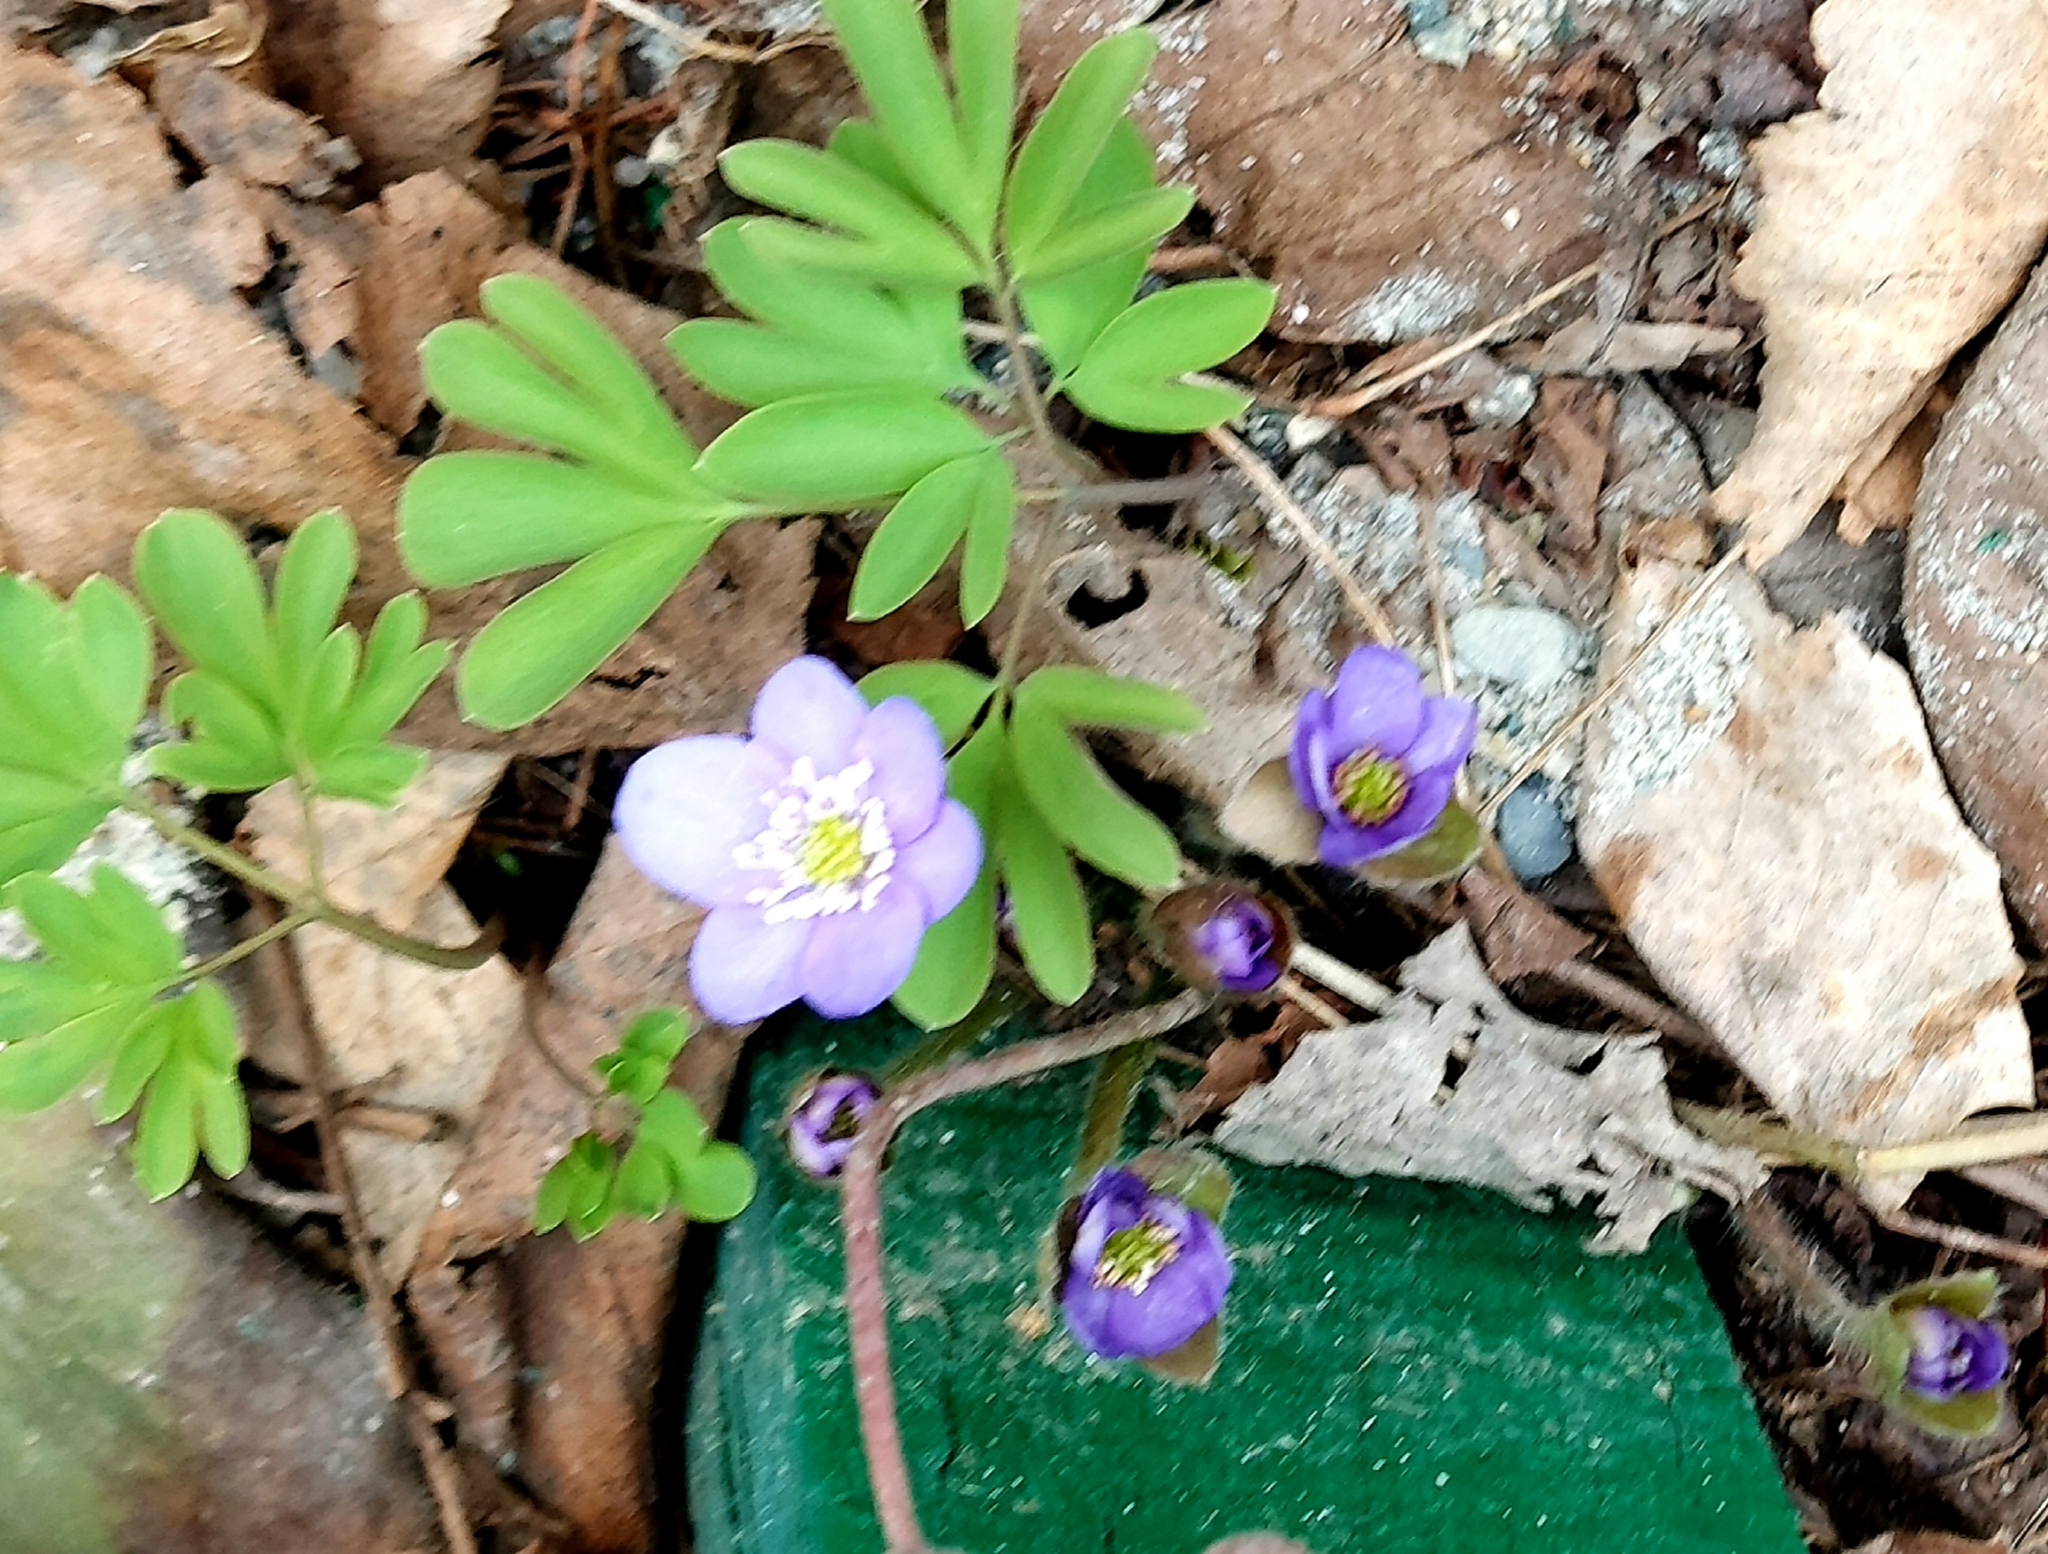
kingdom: Plantae
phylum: Tracheophyta
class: Magnoliopsida
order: Ranunculales
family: Ranunculaceae
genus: Hepatica
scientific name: Hepatica nobilis
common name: Liverleaf
